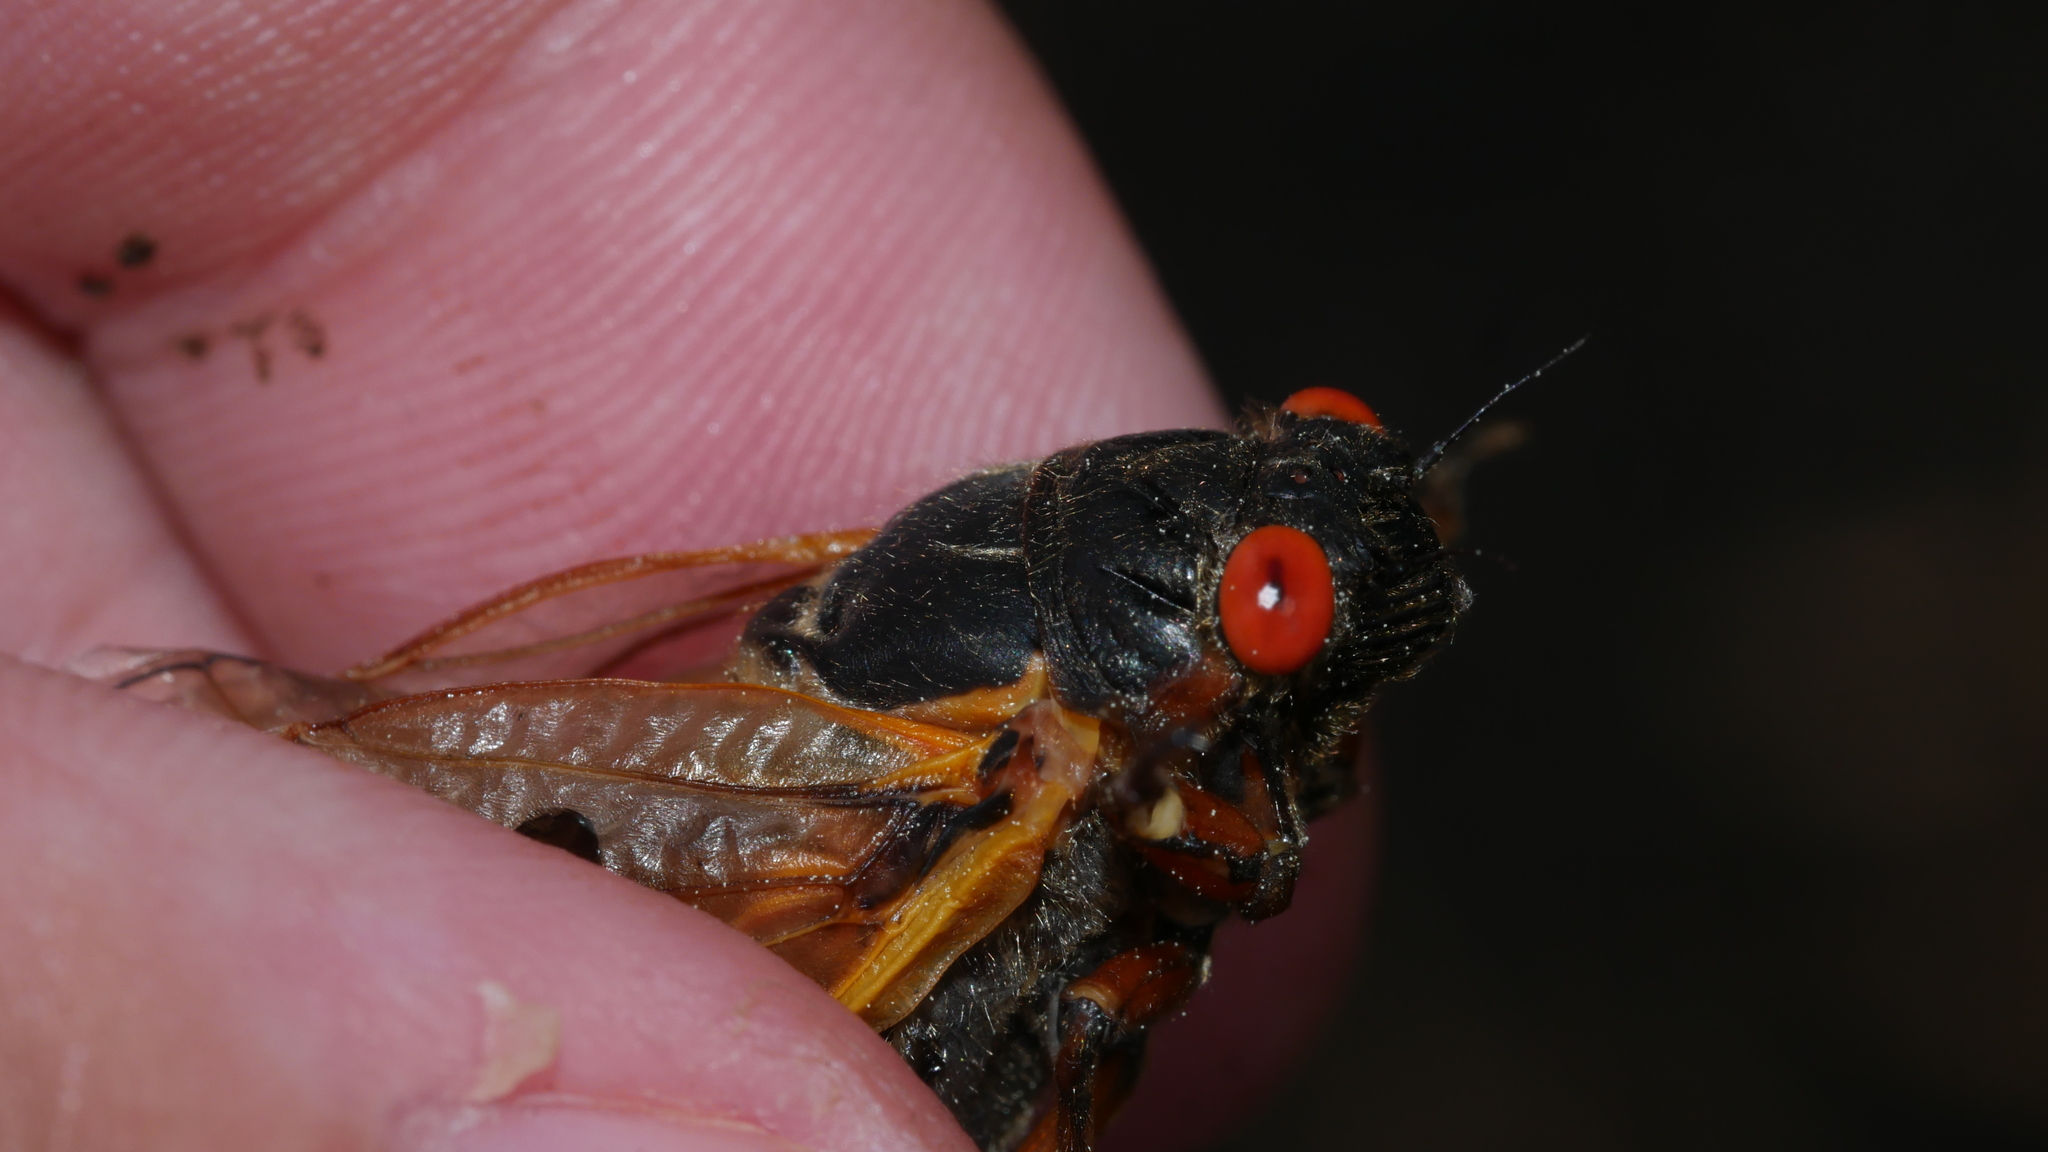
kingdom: Animalia
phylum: Arthropoda
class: Insecta
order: Hemiptera
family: Cicadidae
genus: Magicicada
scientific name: Magicicada septendecim
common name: Periodical cicada
